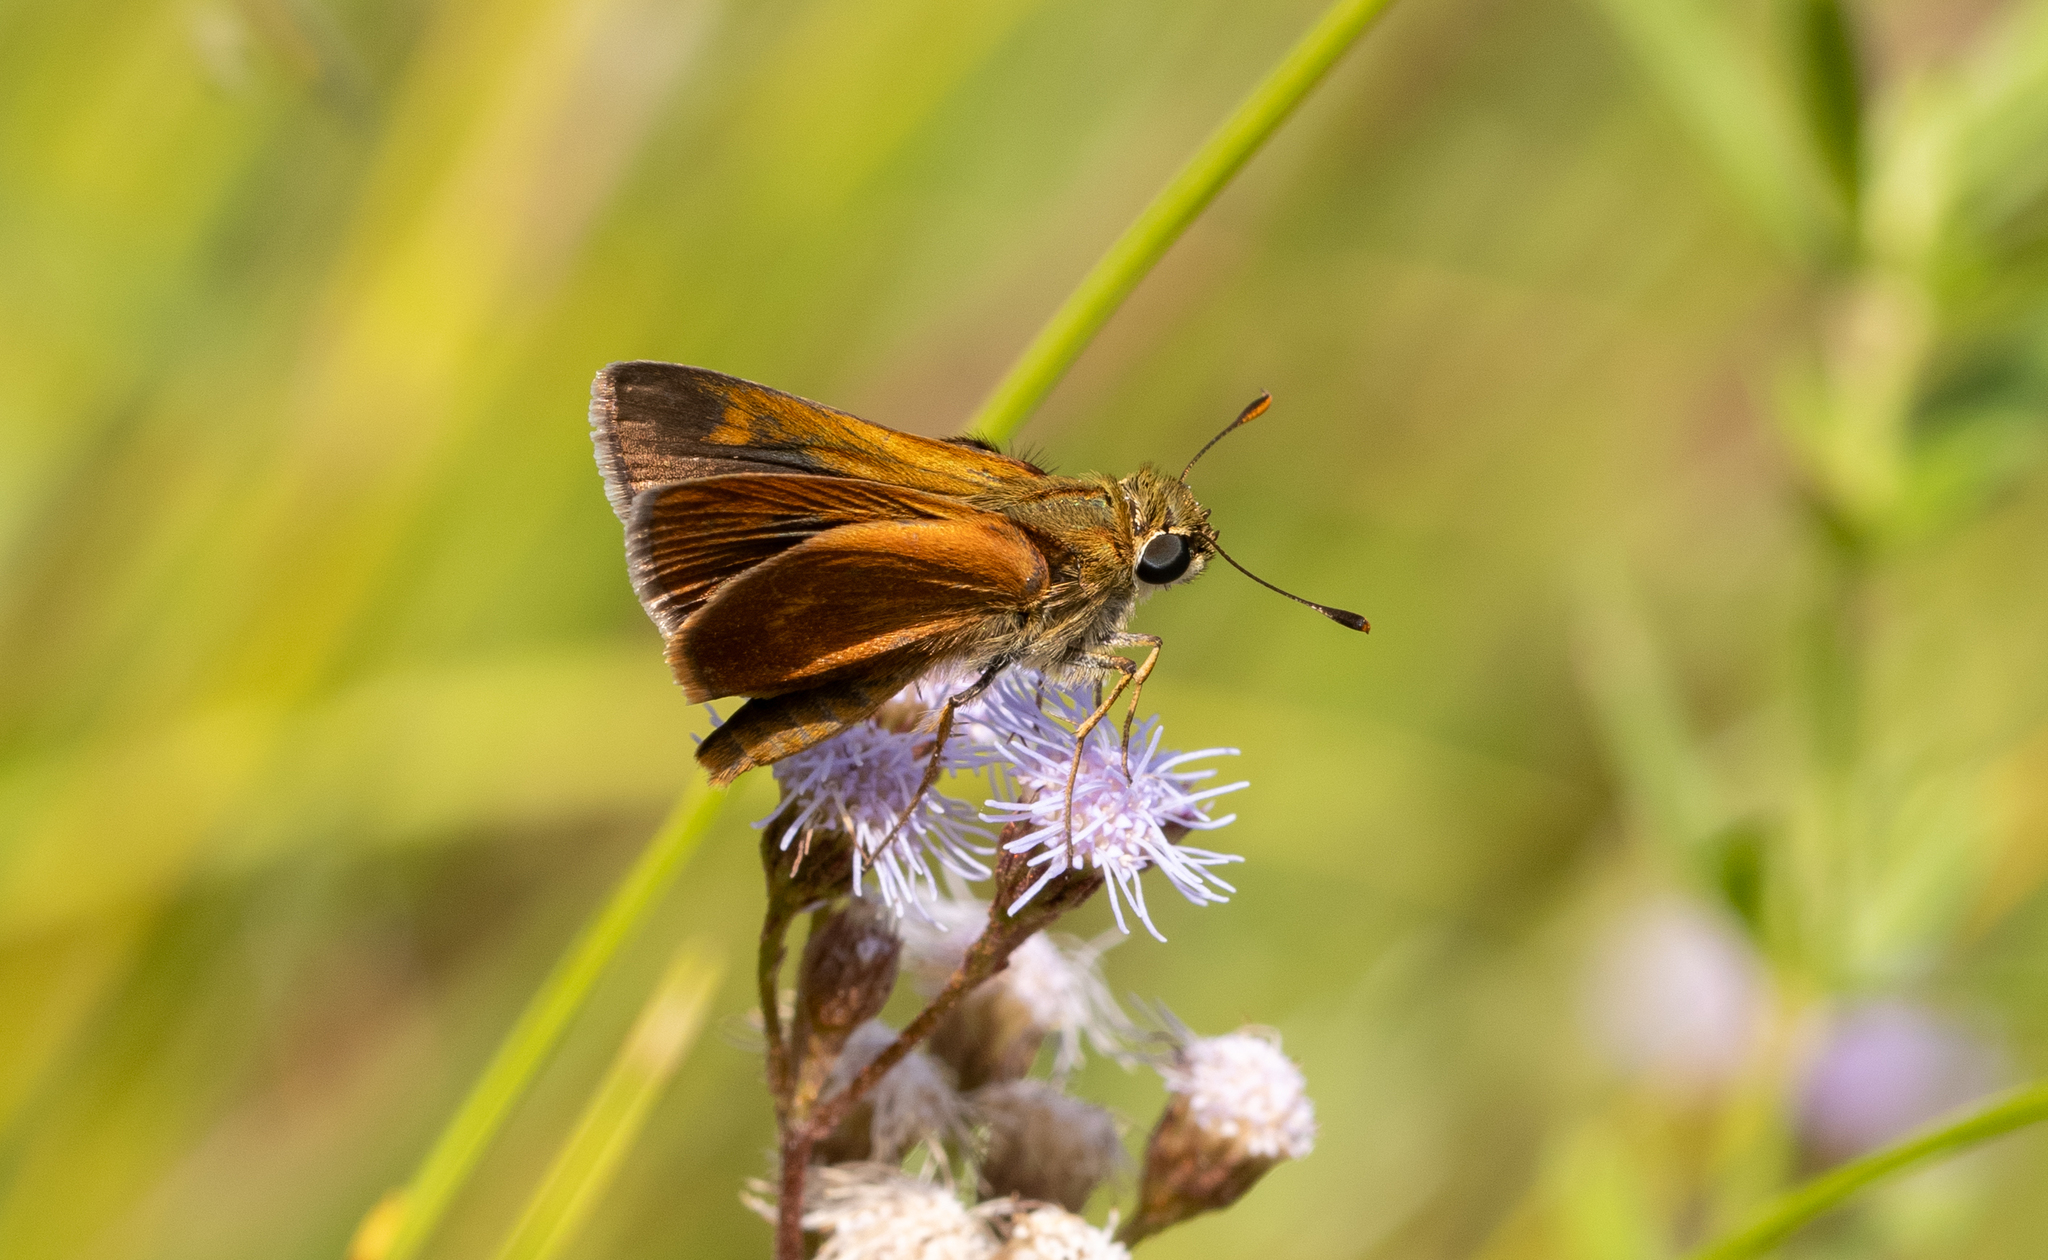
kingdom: Animalia
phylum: Arthropoda
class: Insecta
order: Lepidoptera
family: Hesperiidae
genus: Polites
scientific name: Polites otho
